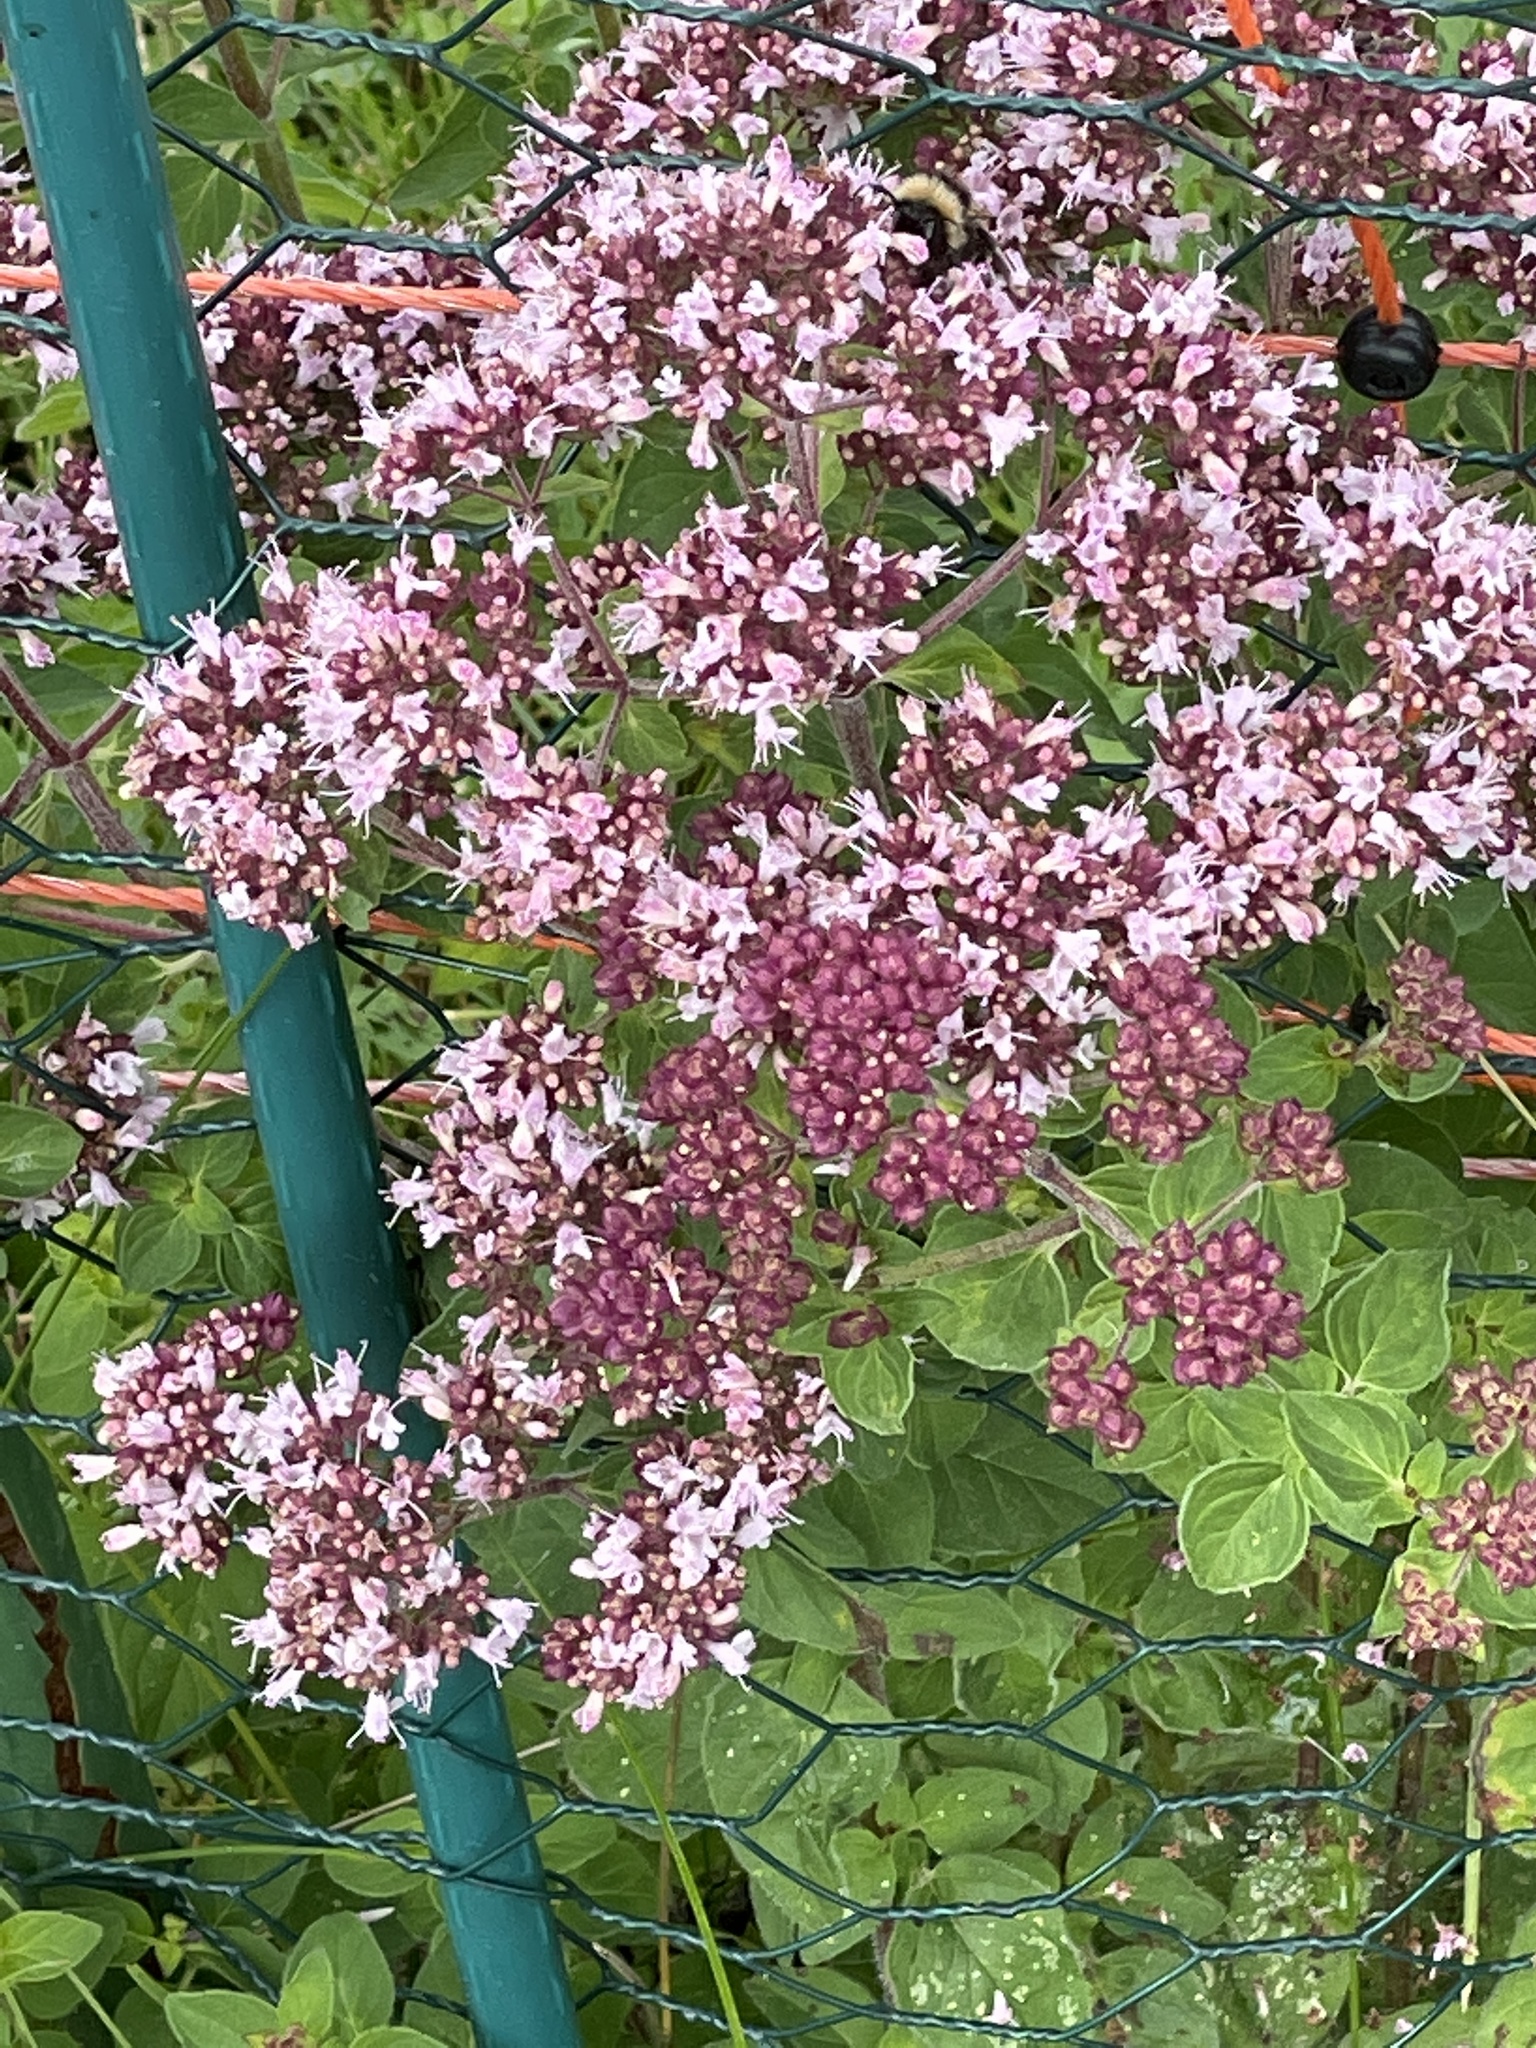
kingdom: Plantae
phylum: Tracheophyta
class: Magnoliopsida
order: Lamiales
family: Lamiaceae
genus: Origanum
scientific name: Origanum vulgare
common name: Wild marjoram
